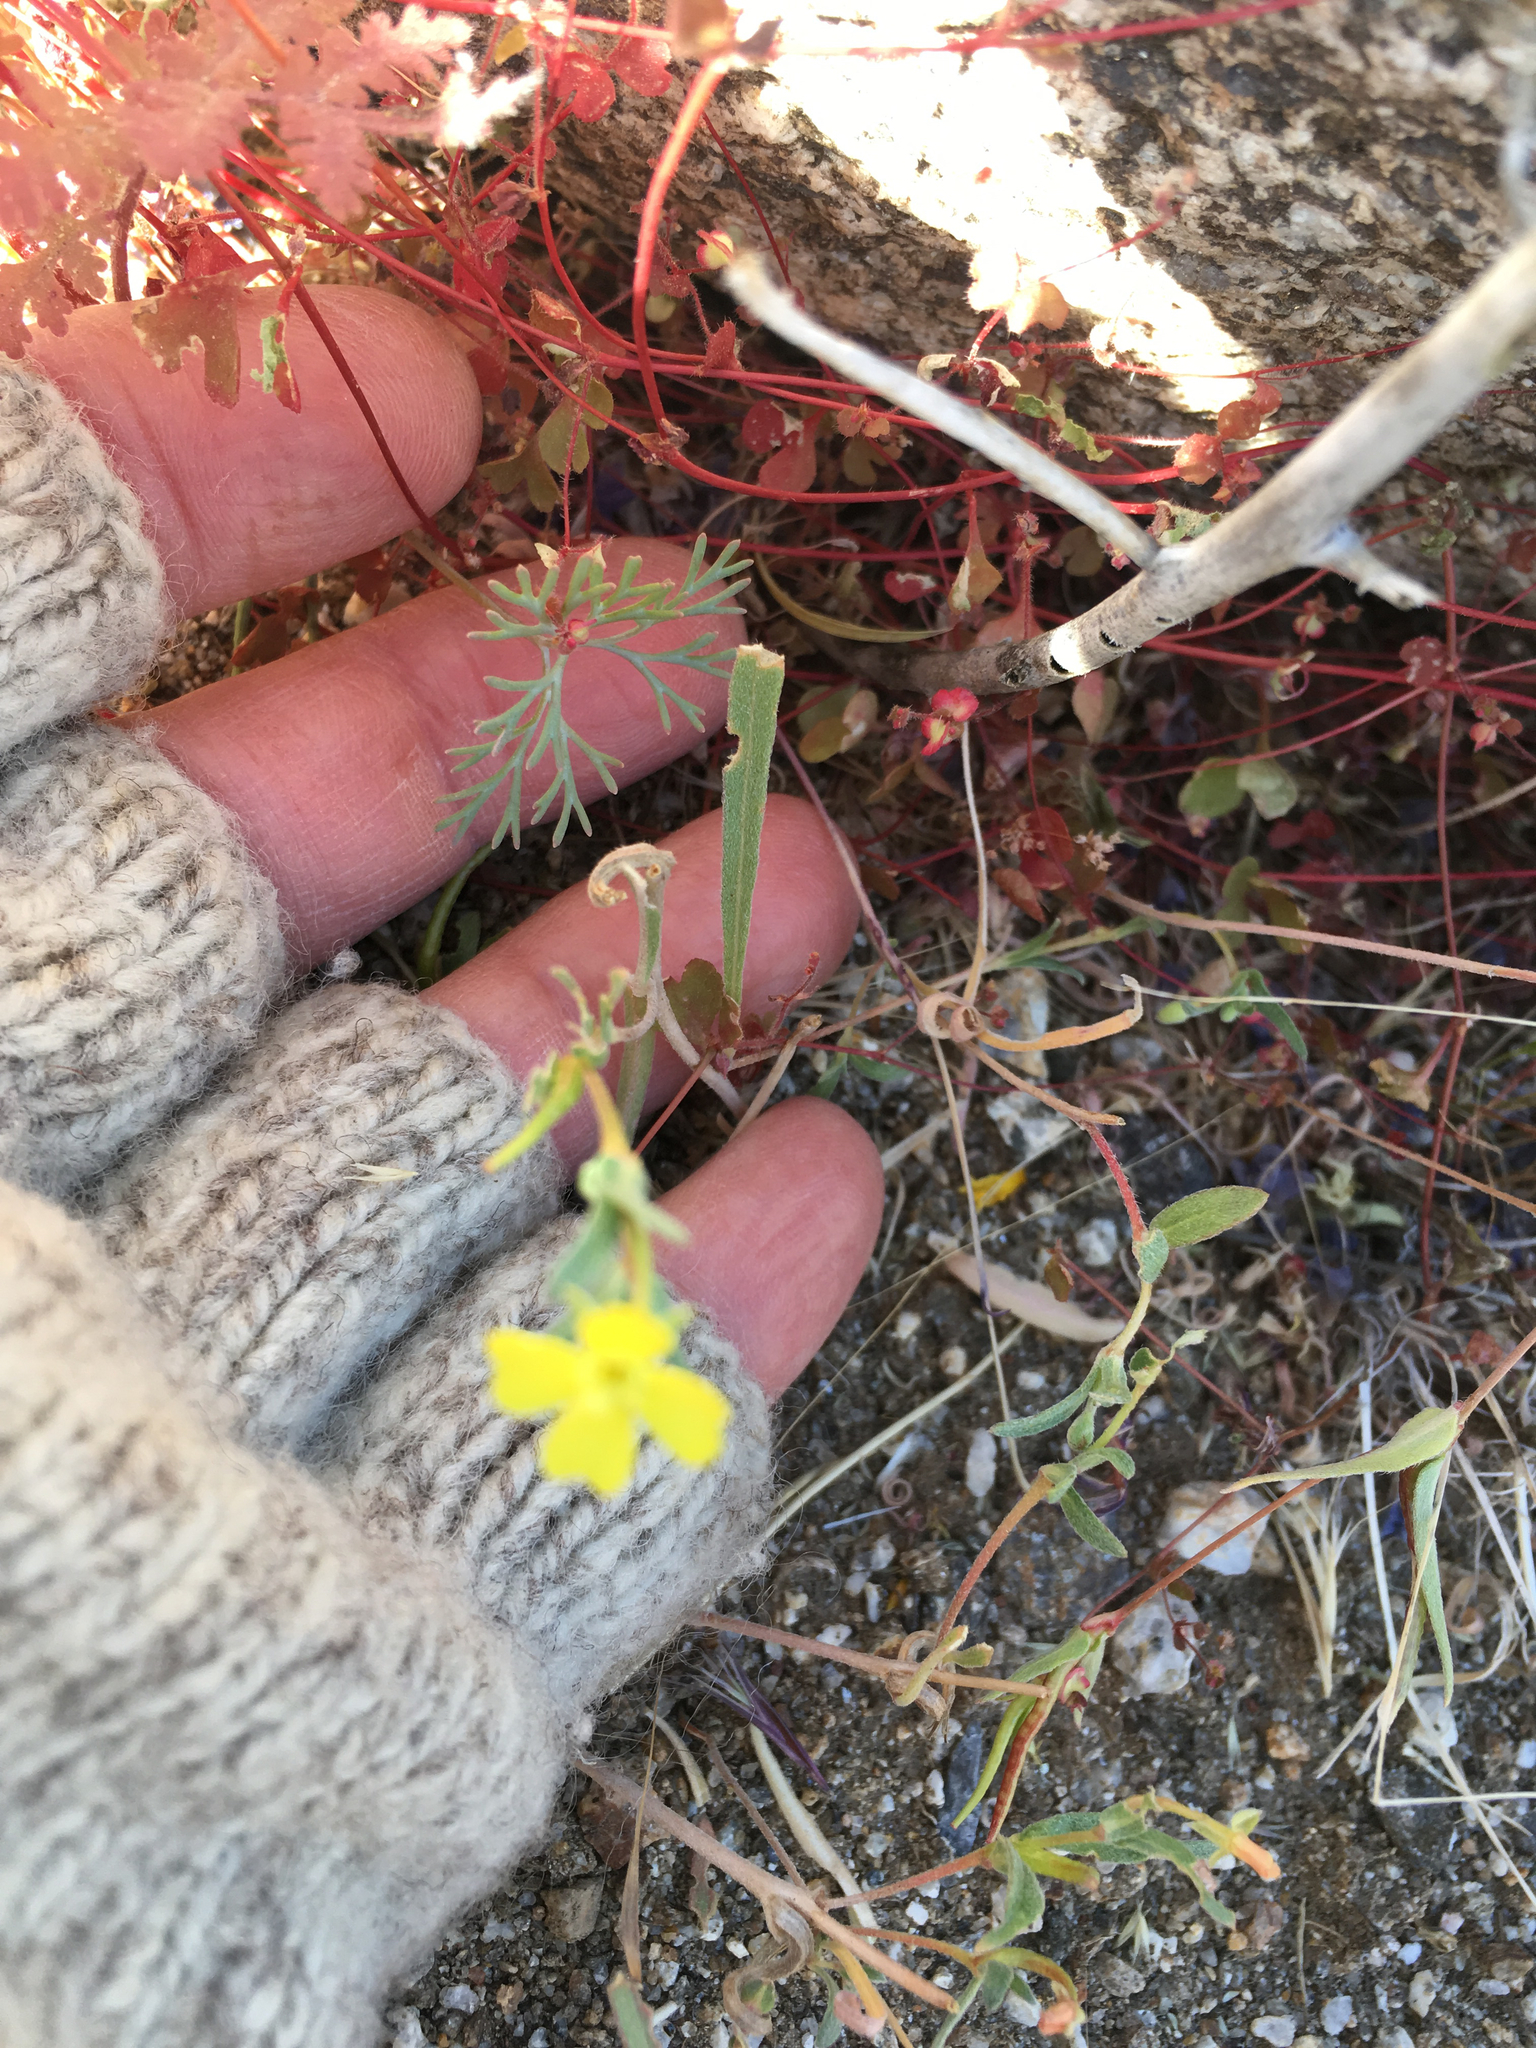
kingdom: Plantae
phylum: Tracheophyta
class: Magnoliopsida
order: Myrtales
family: Onagraceae
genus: Camissoniopsis
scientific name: Camissoniopsis pallida
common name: Paleyellow suncup
